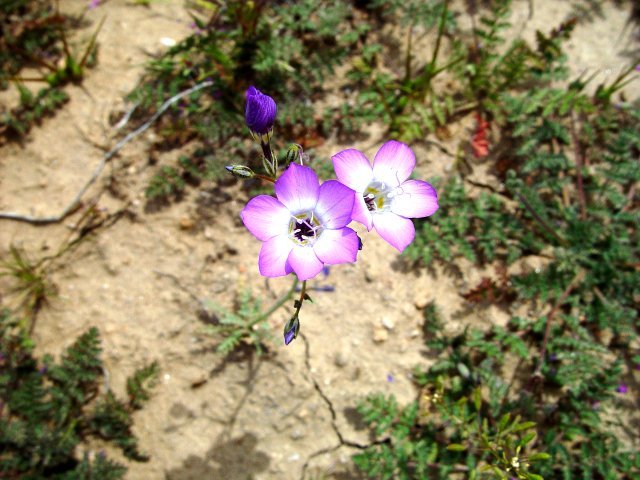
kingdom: Plantae
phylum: Tracheophyta
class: Magnoliopsida
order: Ericales
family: Polemoniaceae
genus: Gilia
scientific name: Gilia latiflora
